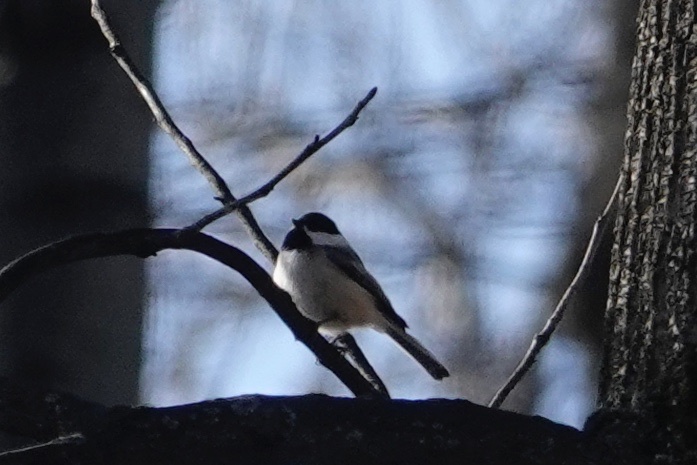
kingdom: Animalia
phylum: Chordata
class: Aves
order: Passeriformes
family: Paridae
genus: Poecile
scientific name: Poecile atricapillus
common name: Black-capped chickadee
